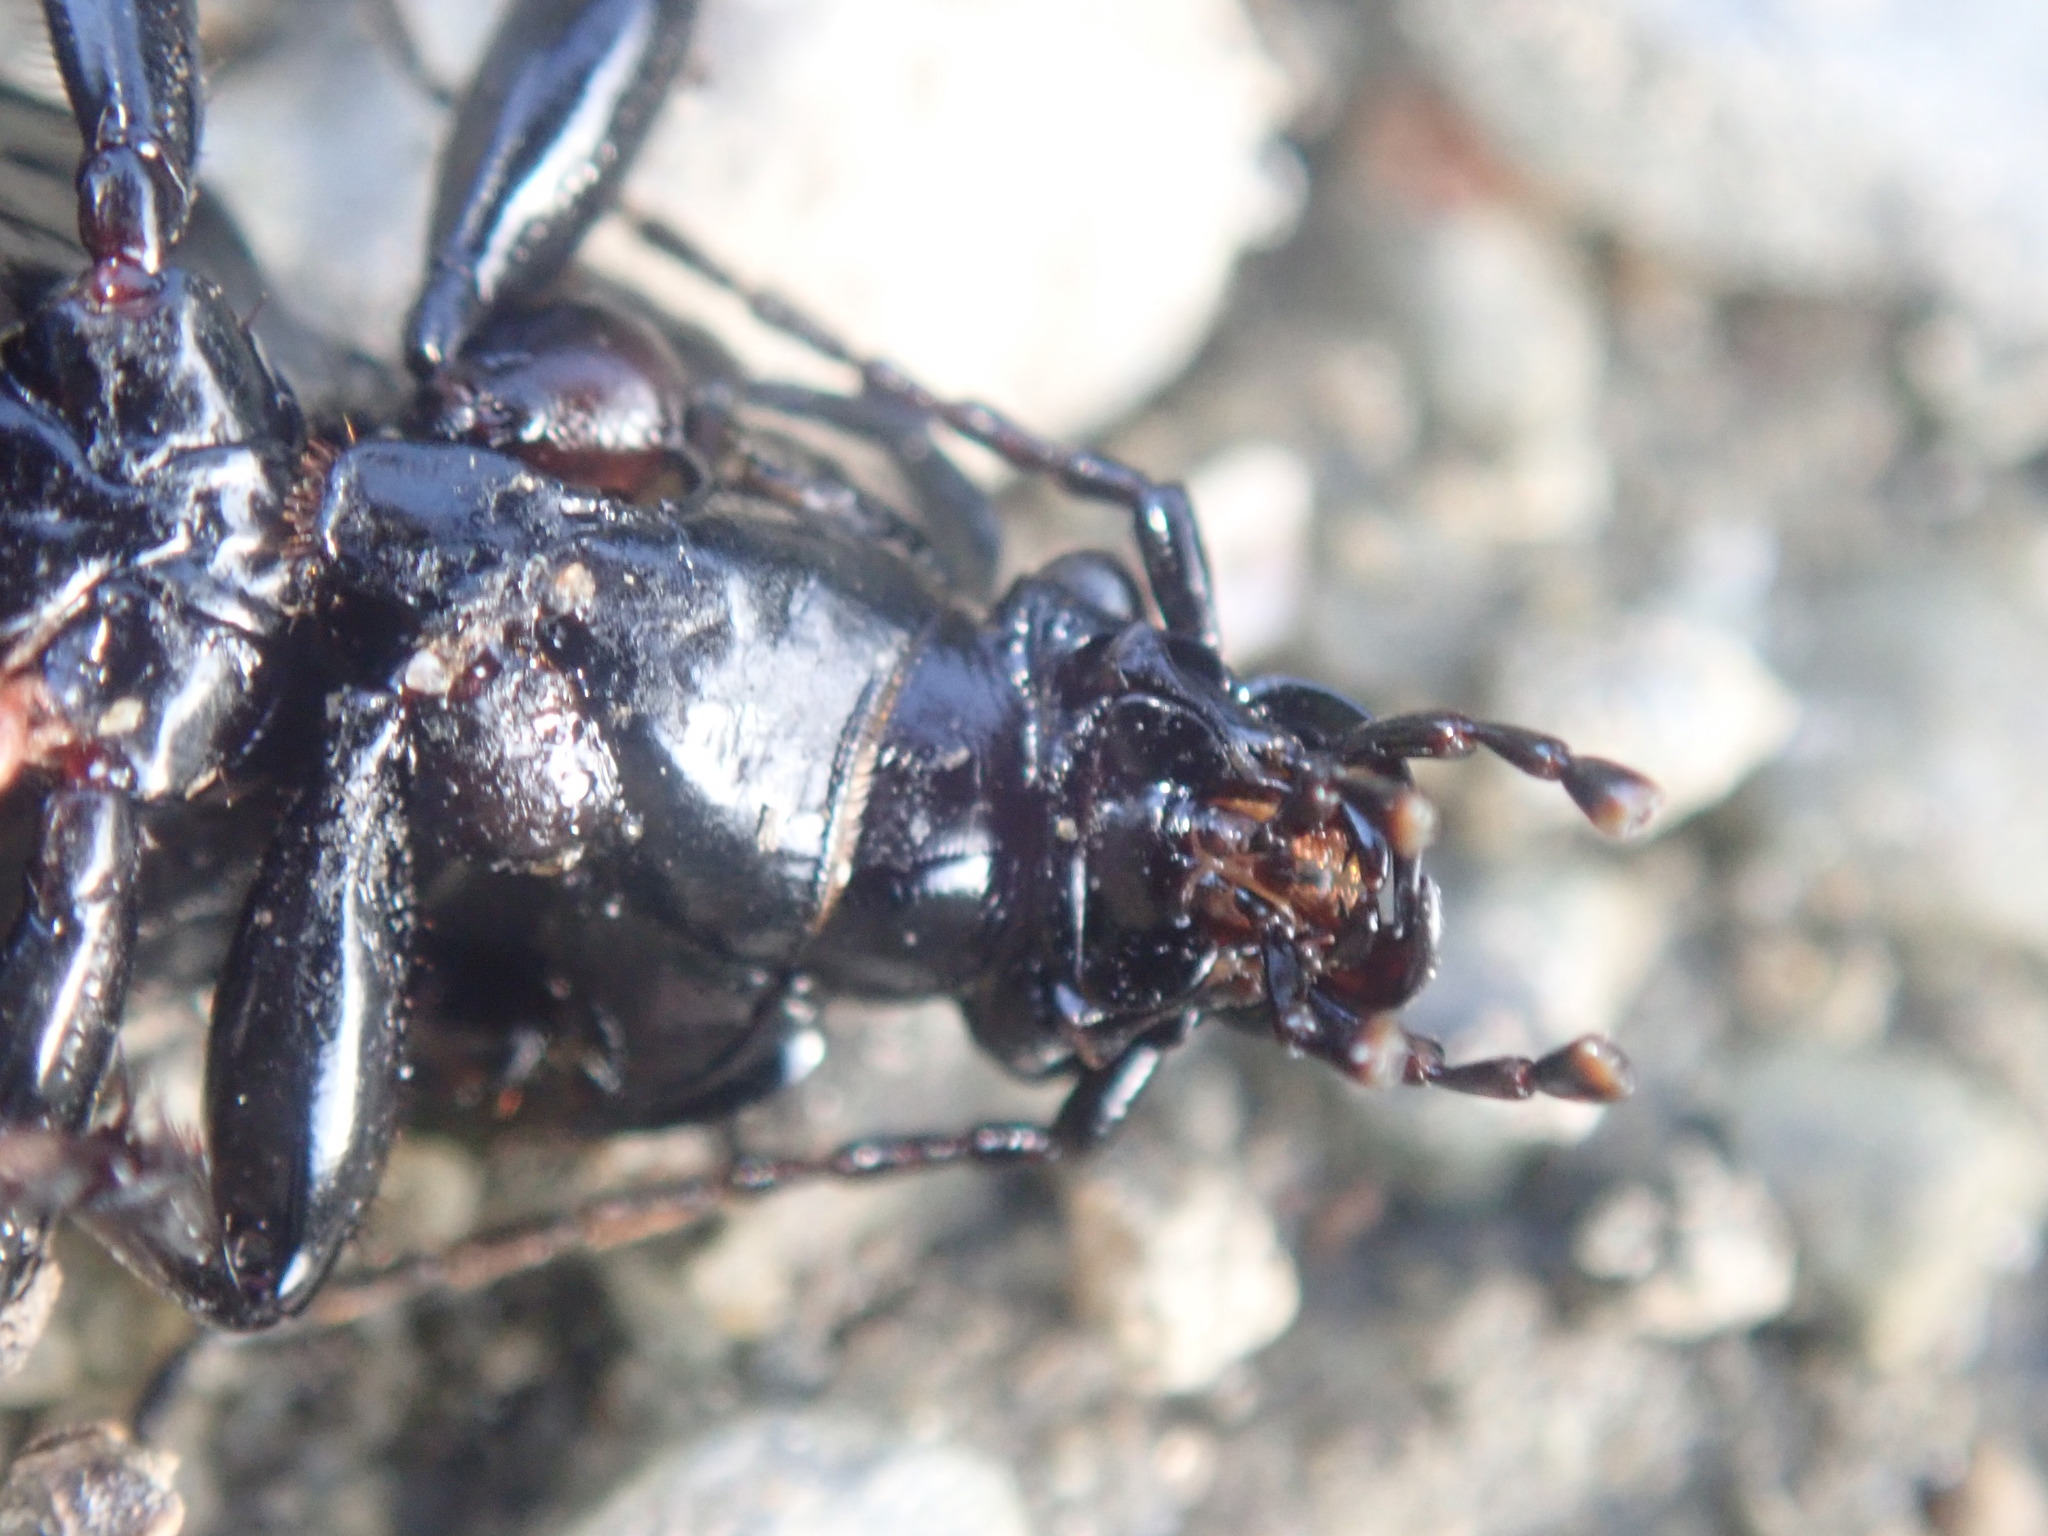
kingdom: Animalia
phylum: Arthropoda
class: Insecta
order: Coleoptera
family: Carabidae
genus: Carabus
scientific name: Carabus nemoralis
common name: European ground beetle
